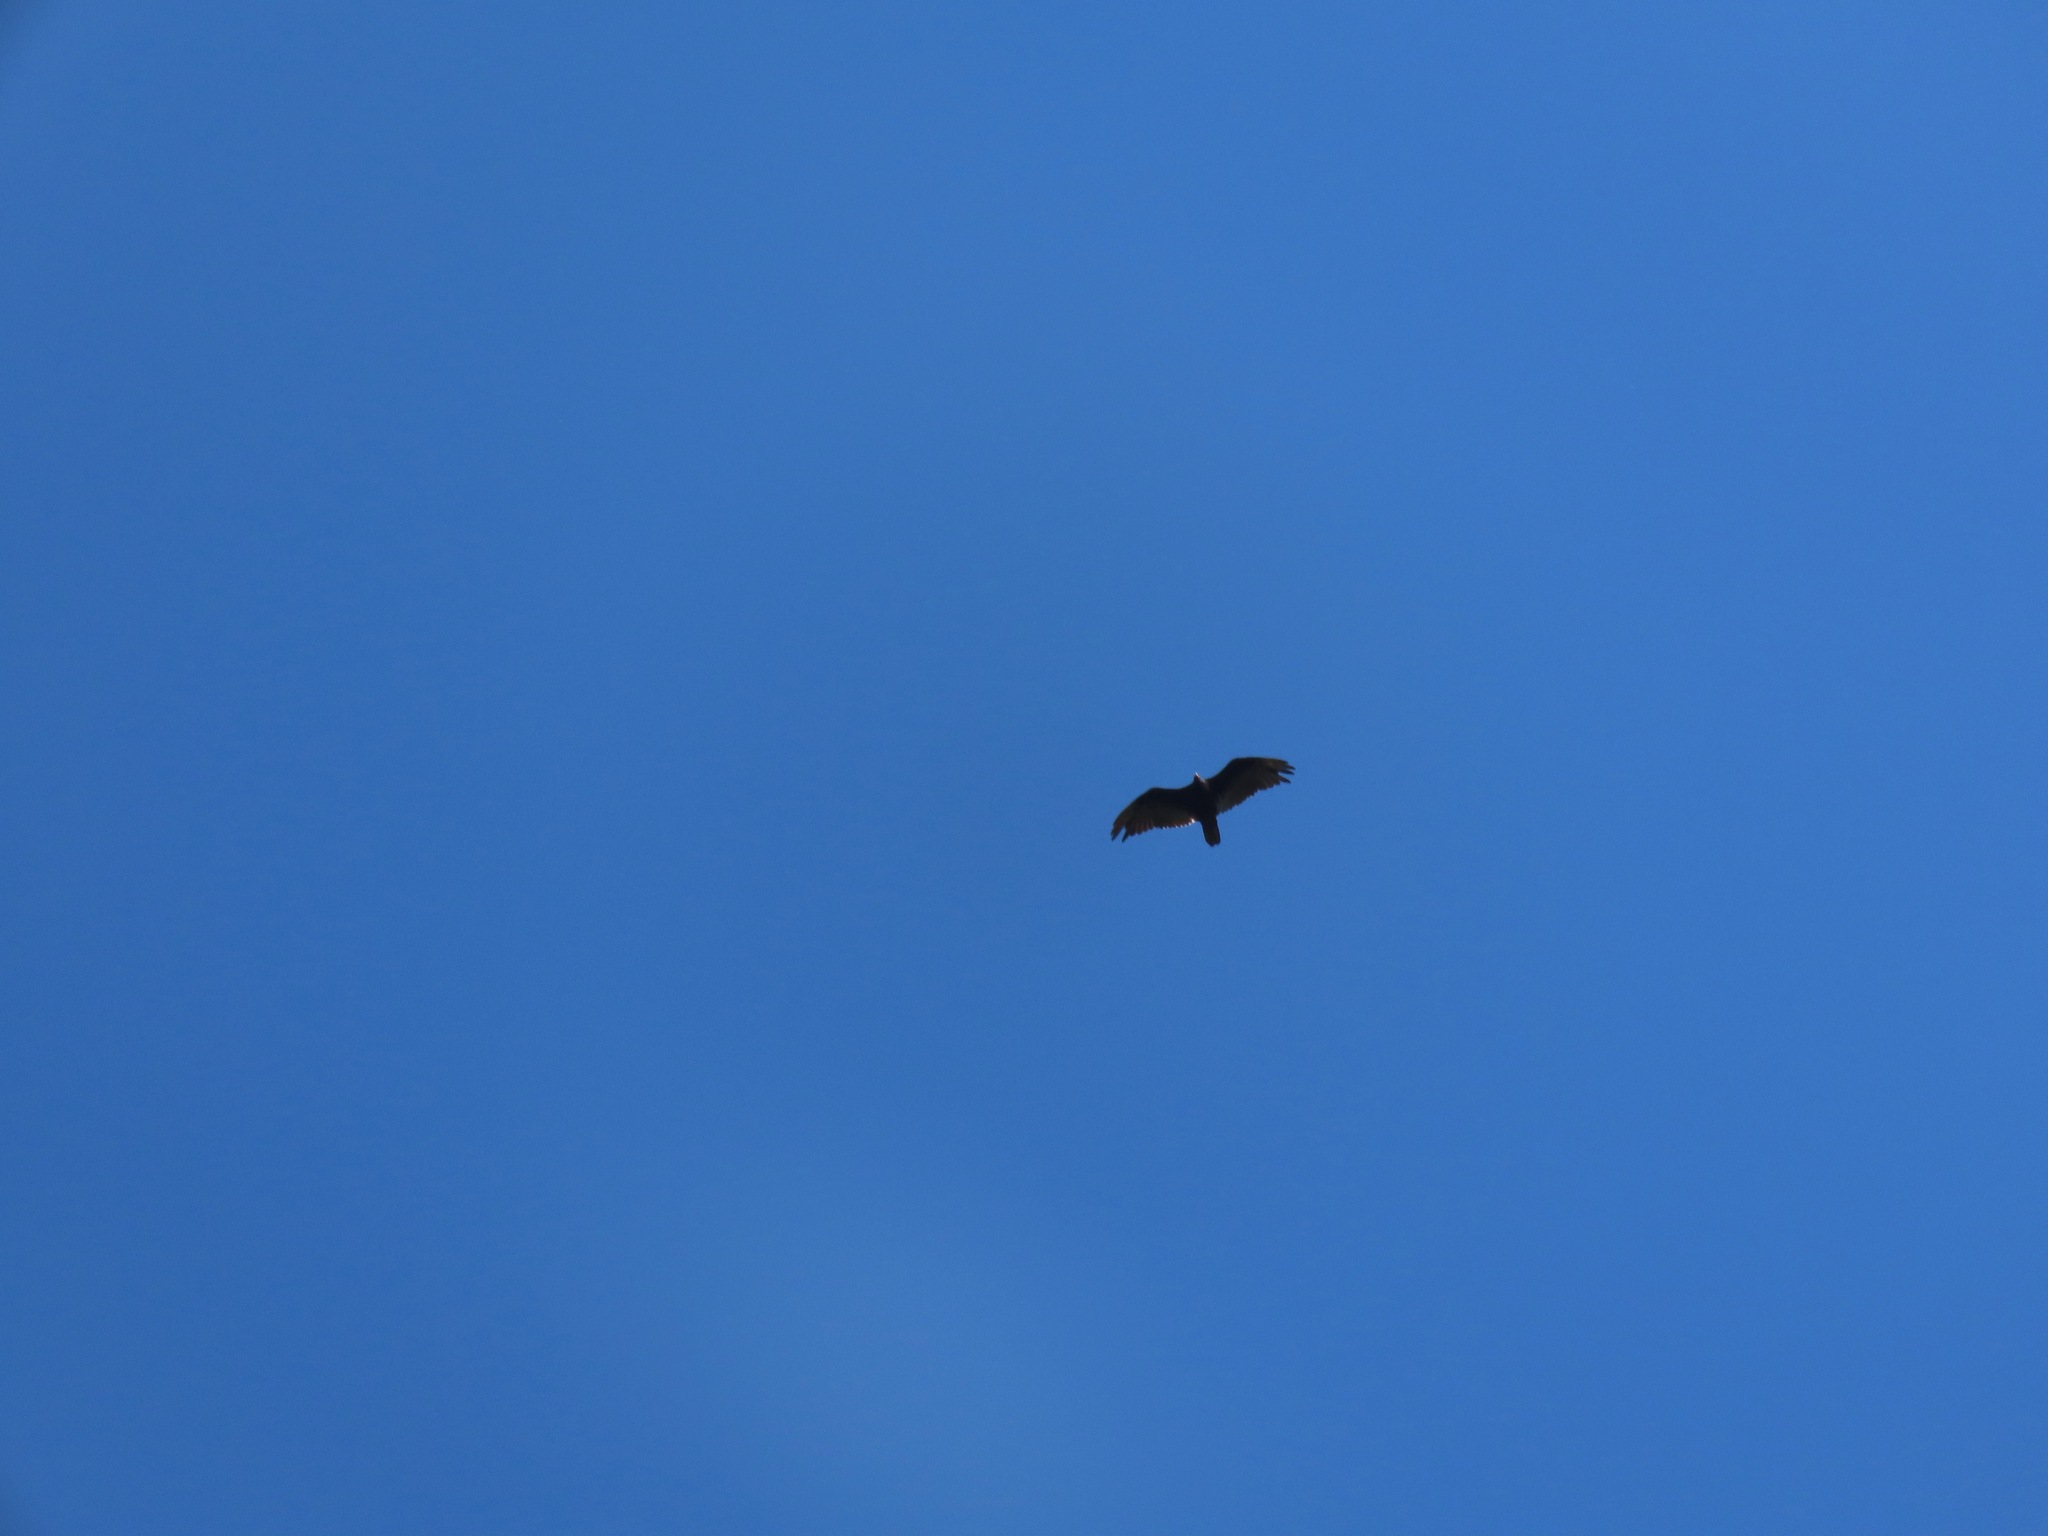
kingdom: Animalia
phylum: Chordata
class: Aves
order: Accipitriformes
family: Cathartidae
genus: Cathartes
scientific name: Cathartes aura
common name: Turkey vulture
